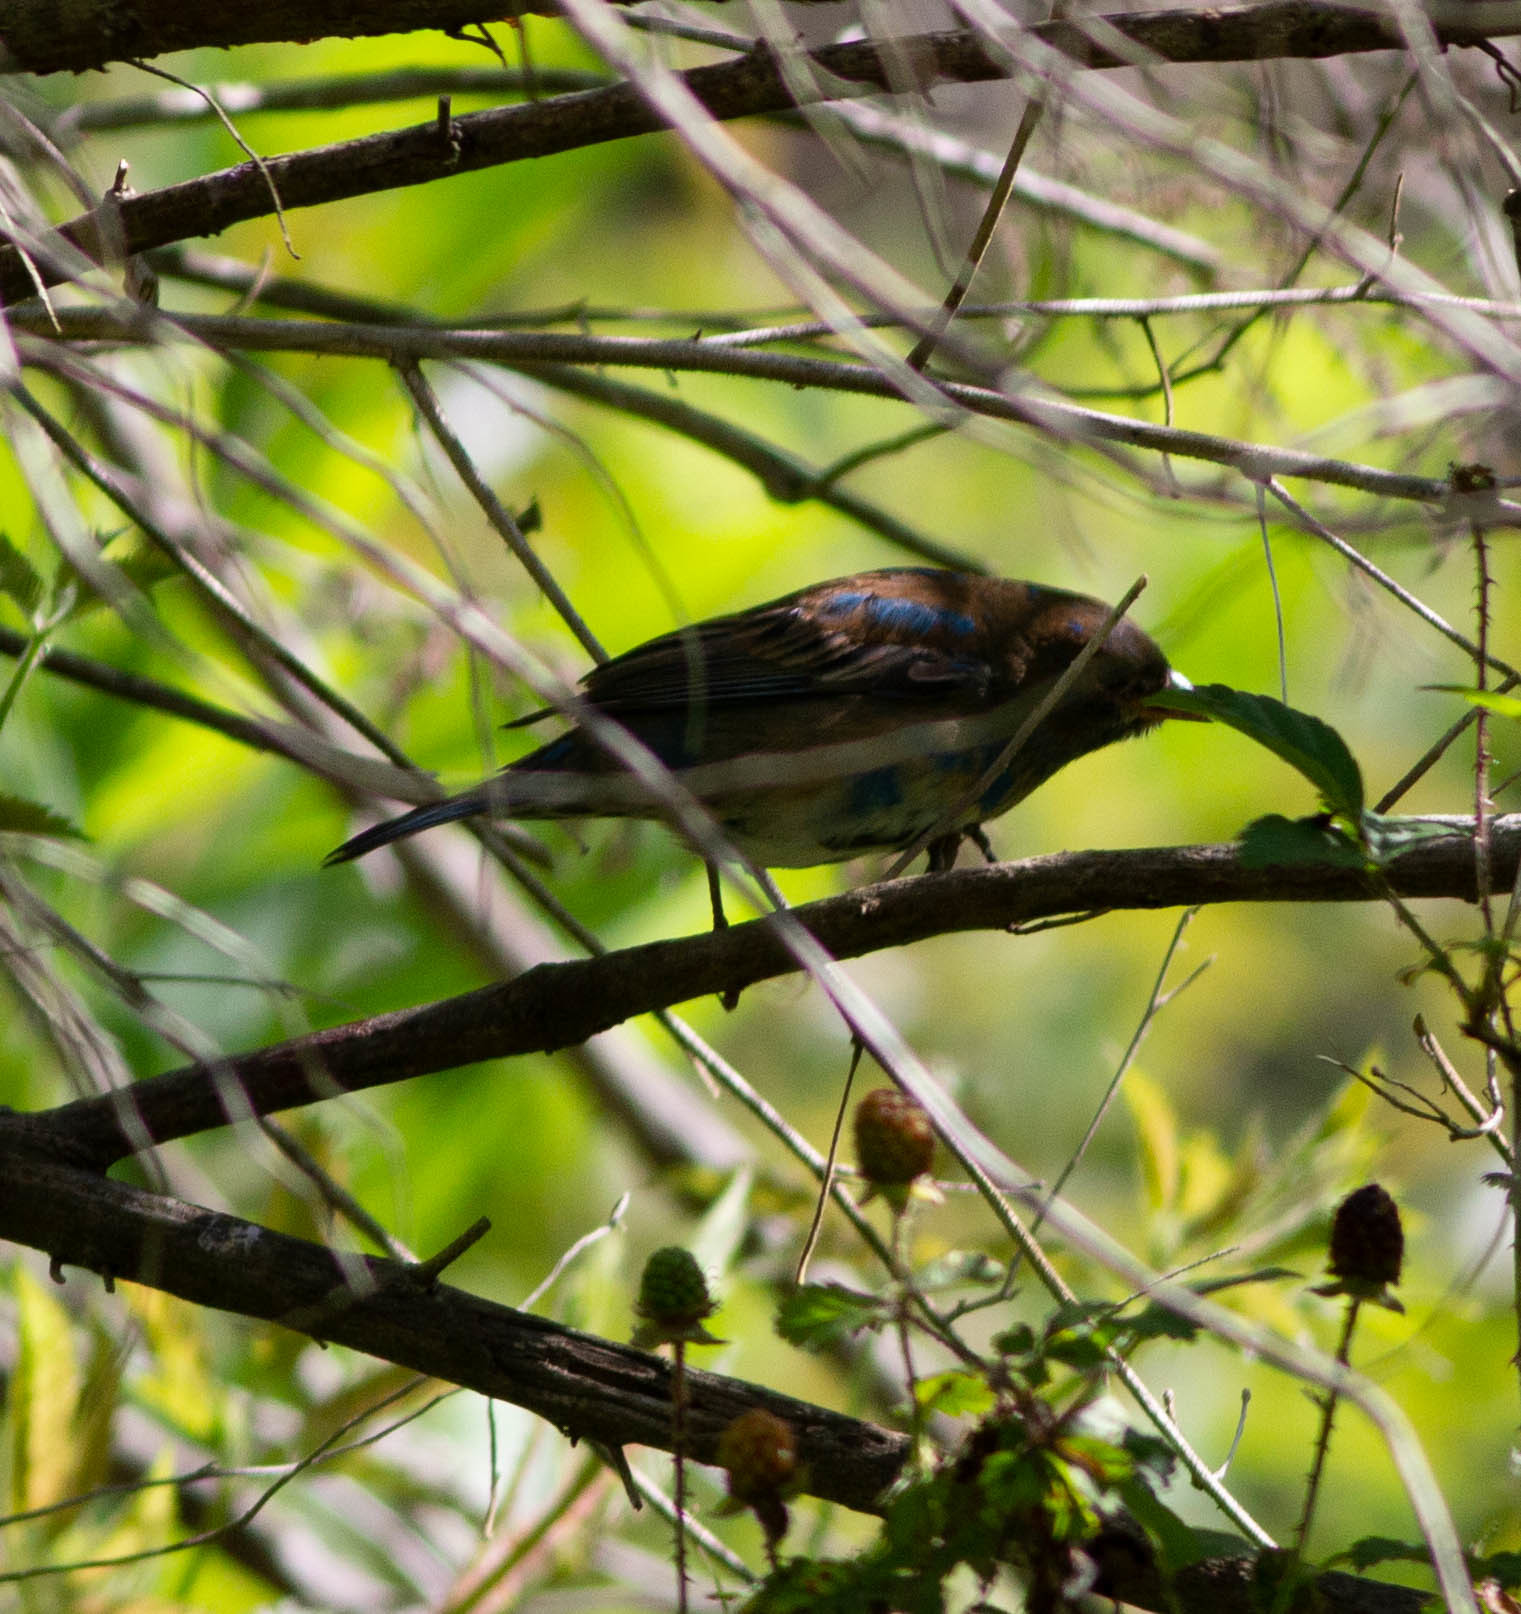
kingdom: Animalia
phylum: Chordata
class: Aves
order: Passeriformes
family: Cardinalidae
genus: Passerina
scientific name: Passerina cyanea
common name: Indigo bunting
